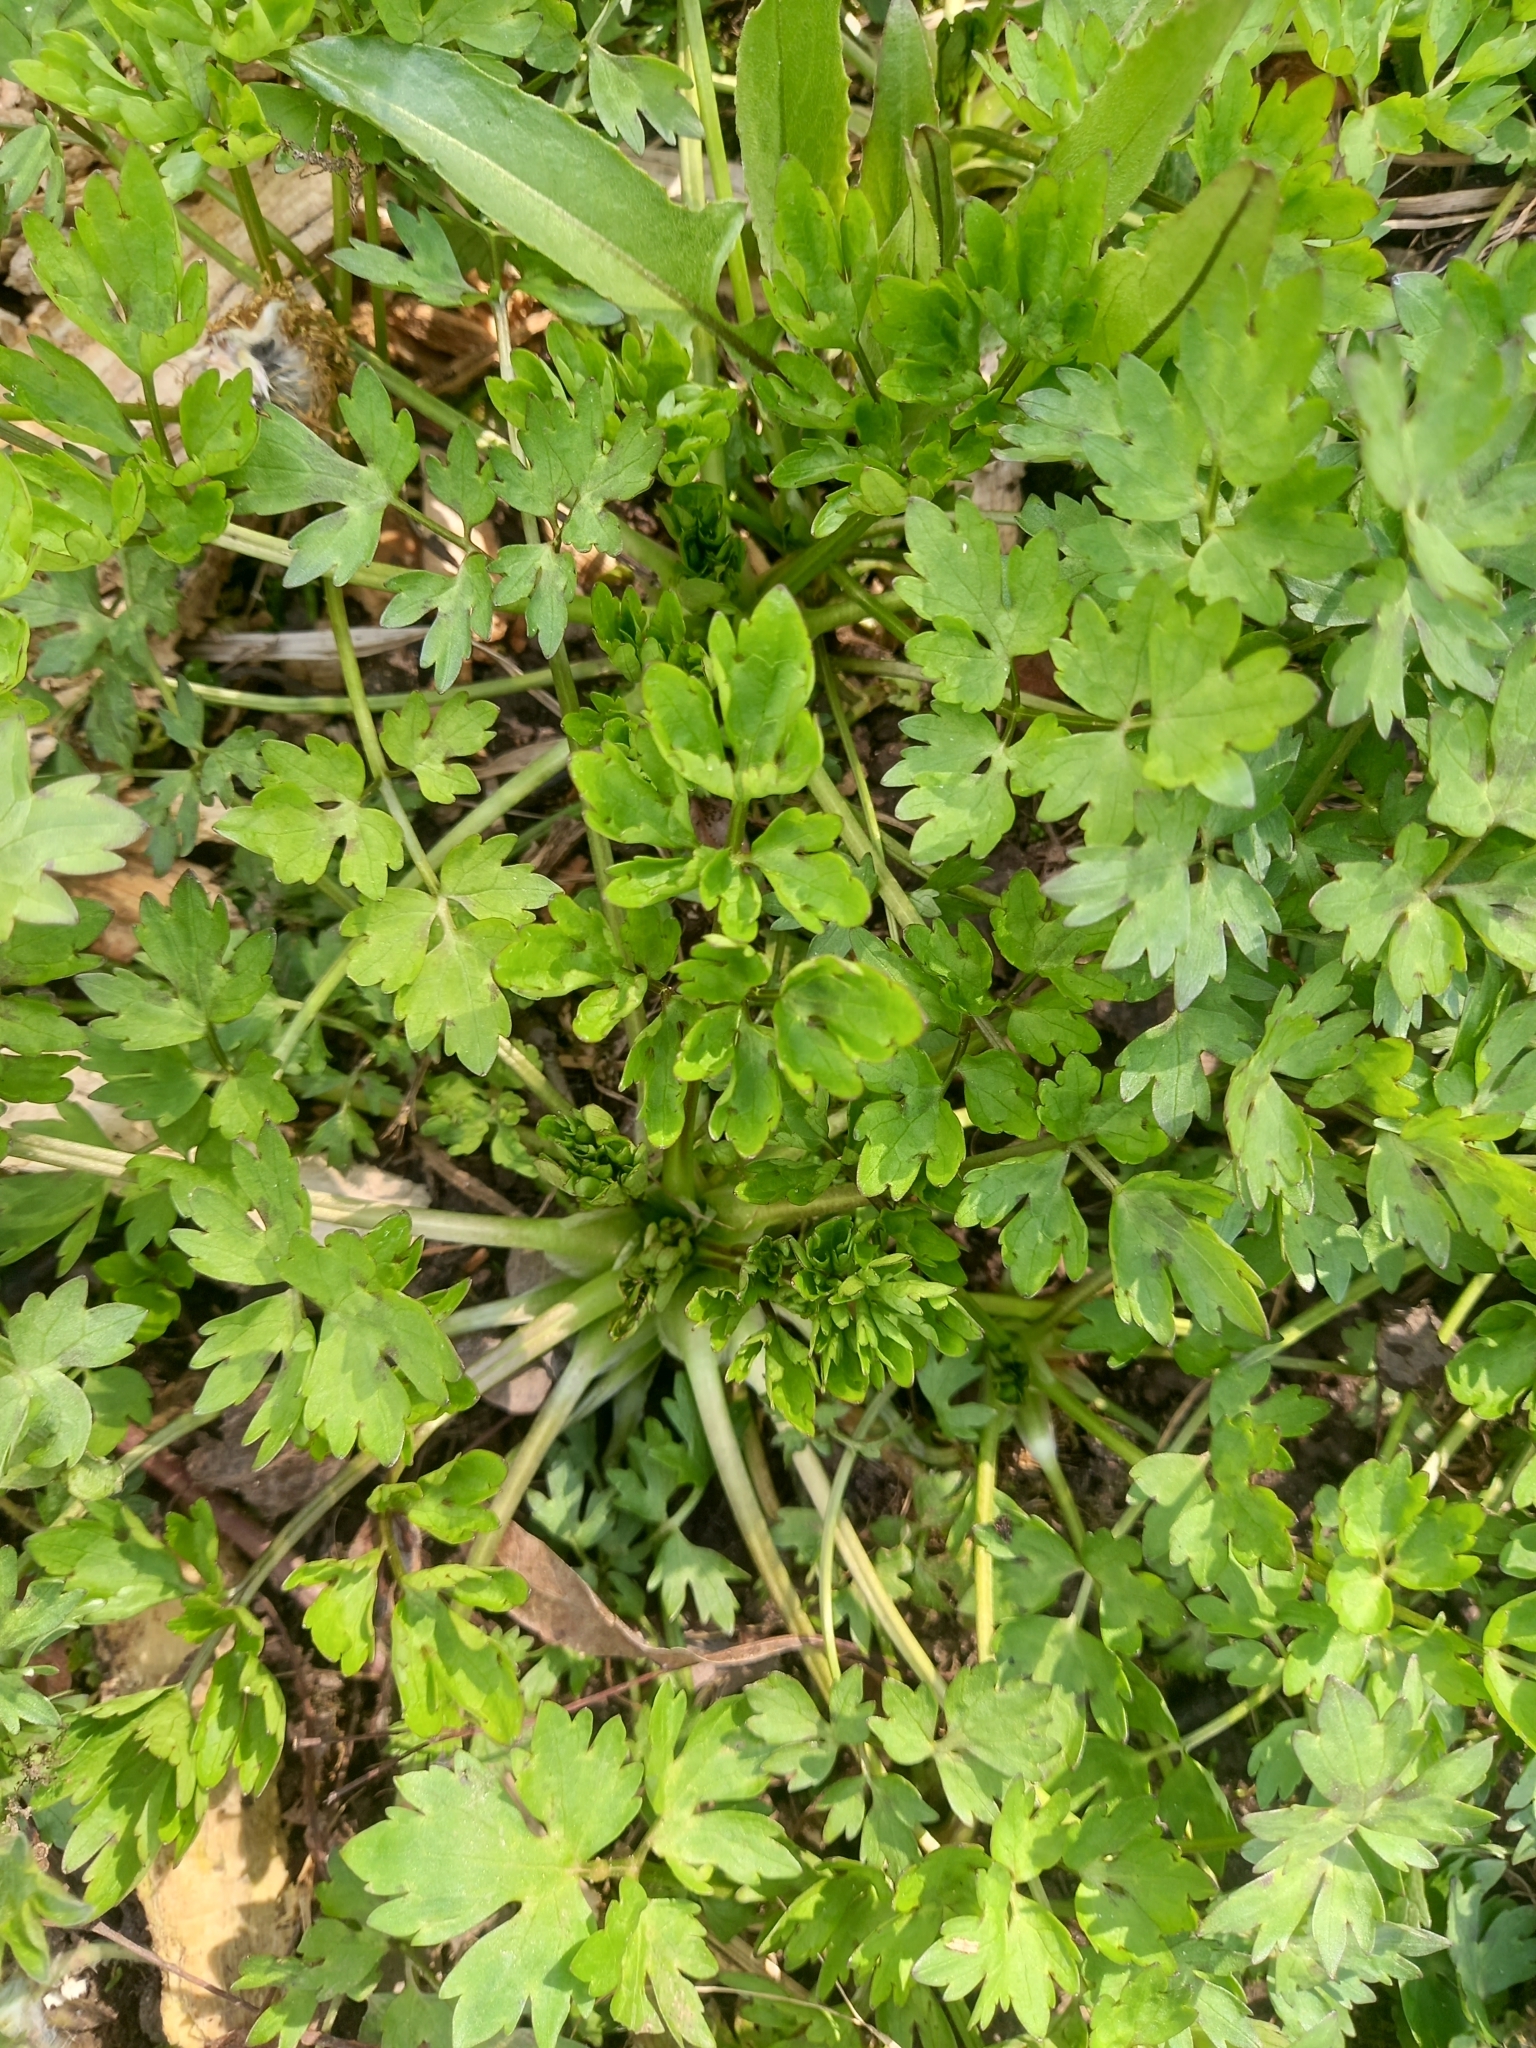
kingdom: Plantae
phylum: Tracheophyta
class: Magnoliopsida
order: Ranunculales
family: Ranunculaceae
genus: Ranunculus
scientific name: Ranunculus repens
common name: Creeping buttercup
